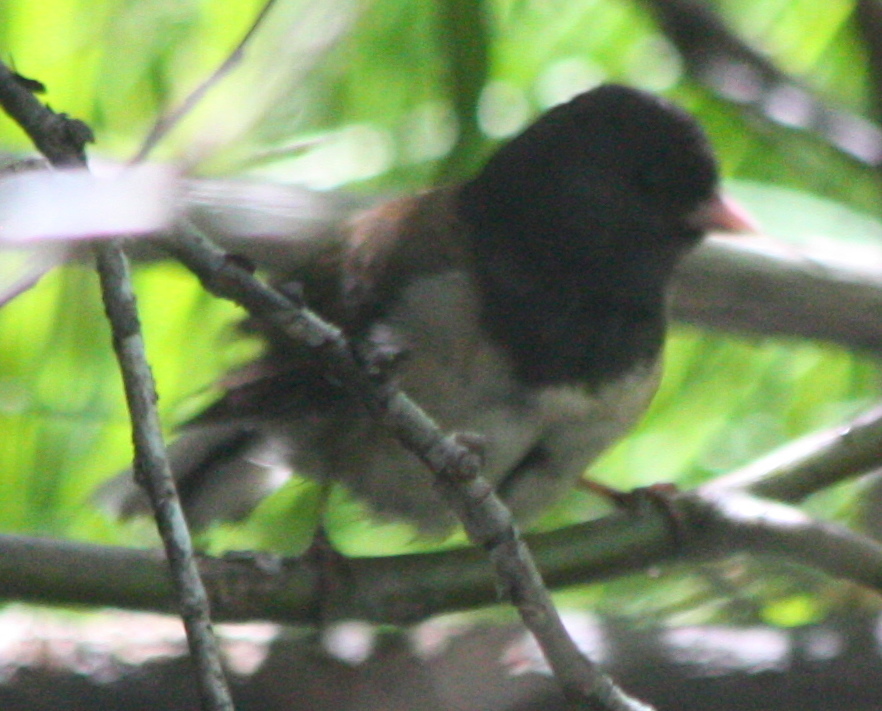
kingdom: Animalia
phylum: Chordata
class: Aves
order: Passeriformes
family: Passerellidae
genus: Junco
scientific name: Junco hyemalis
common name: Dark-eyed junco
